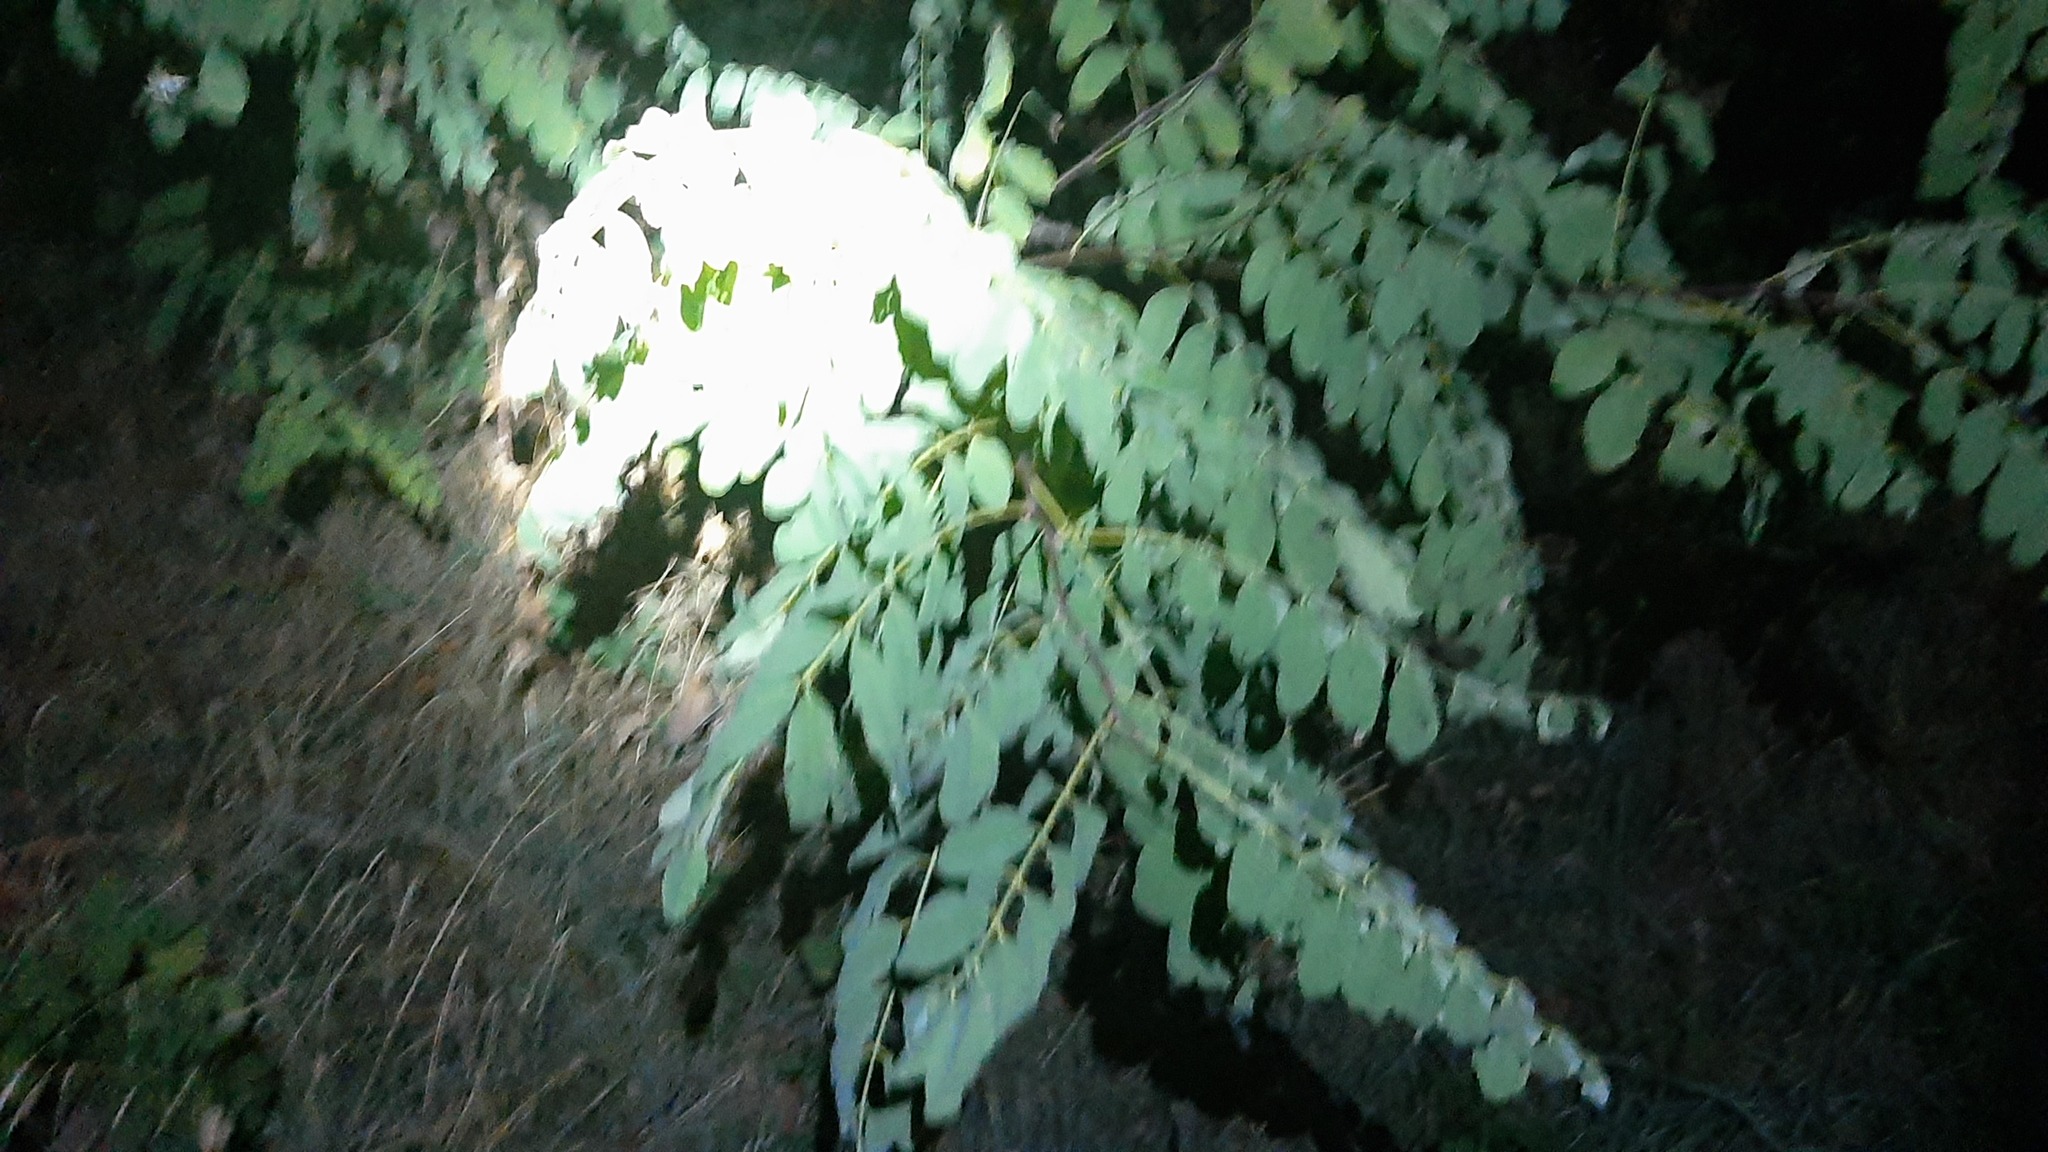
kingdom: Plantae
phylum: Tracheophyta
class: Magnoliopsida
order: Fabales
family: Fabaceae
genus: Robinia
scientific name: Robinia pseudoacacia
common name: Black locust
